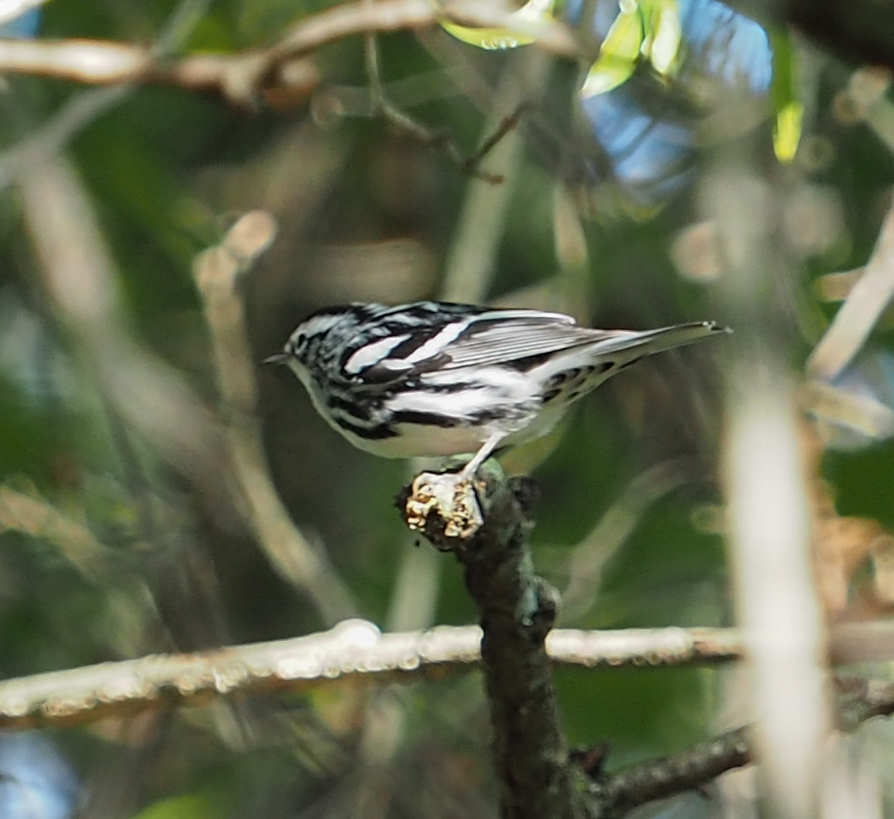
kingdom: Animalia
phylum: Chordata
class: Aves
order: Passeriformes
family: Parulidae
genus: Mniotilta
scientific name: Mniotilta varia
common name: Black-and-white warbler
